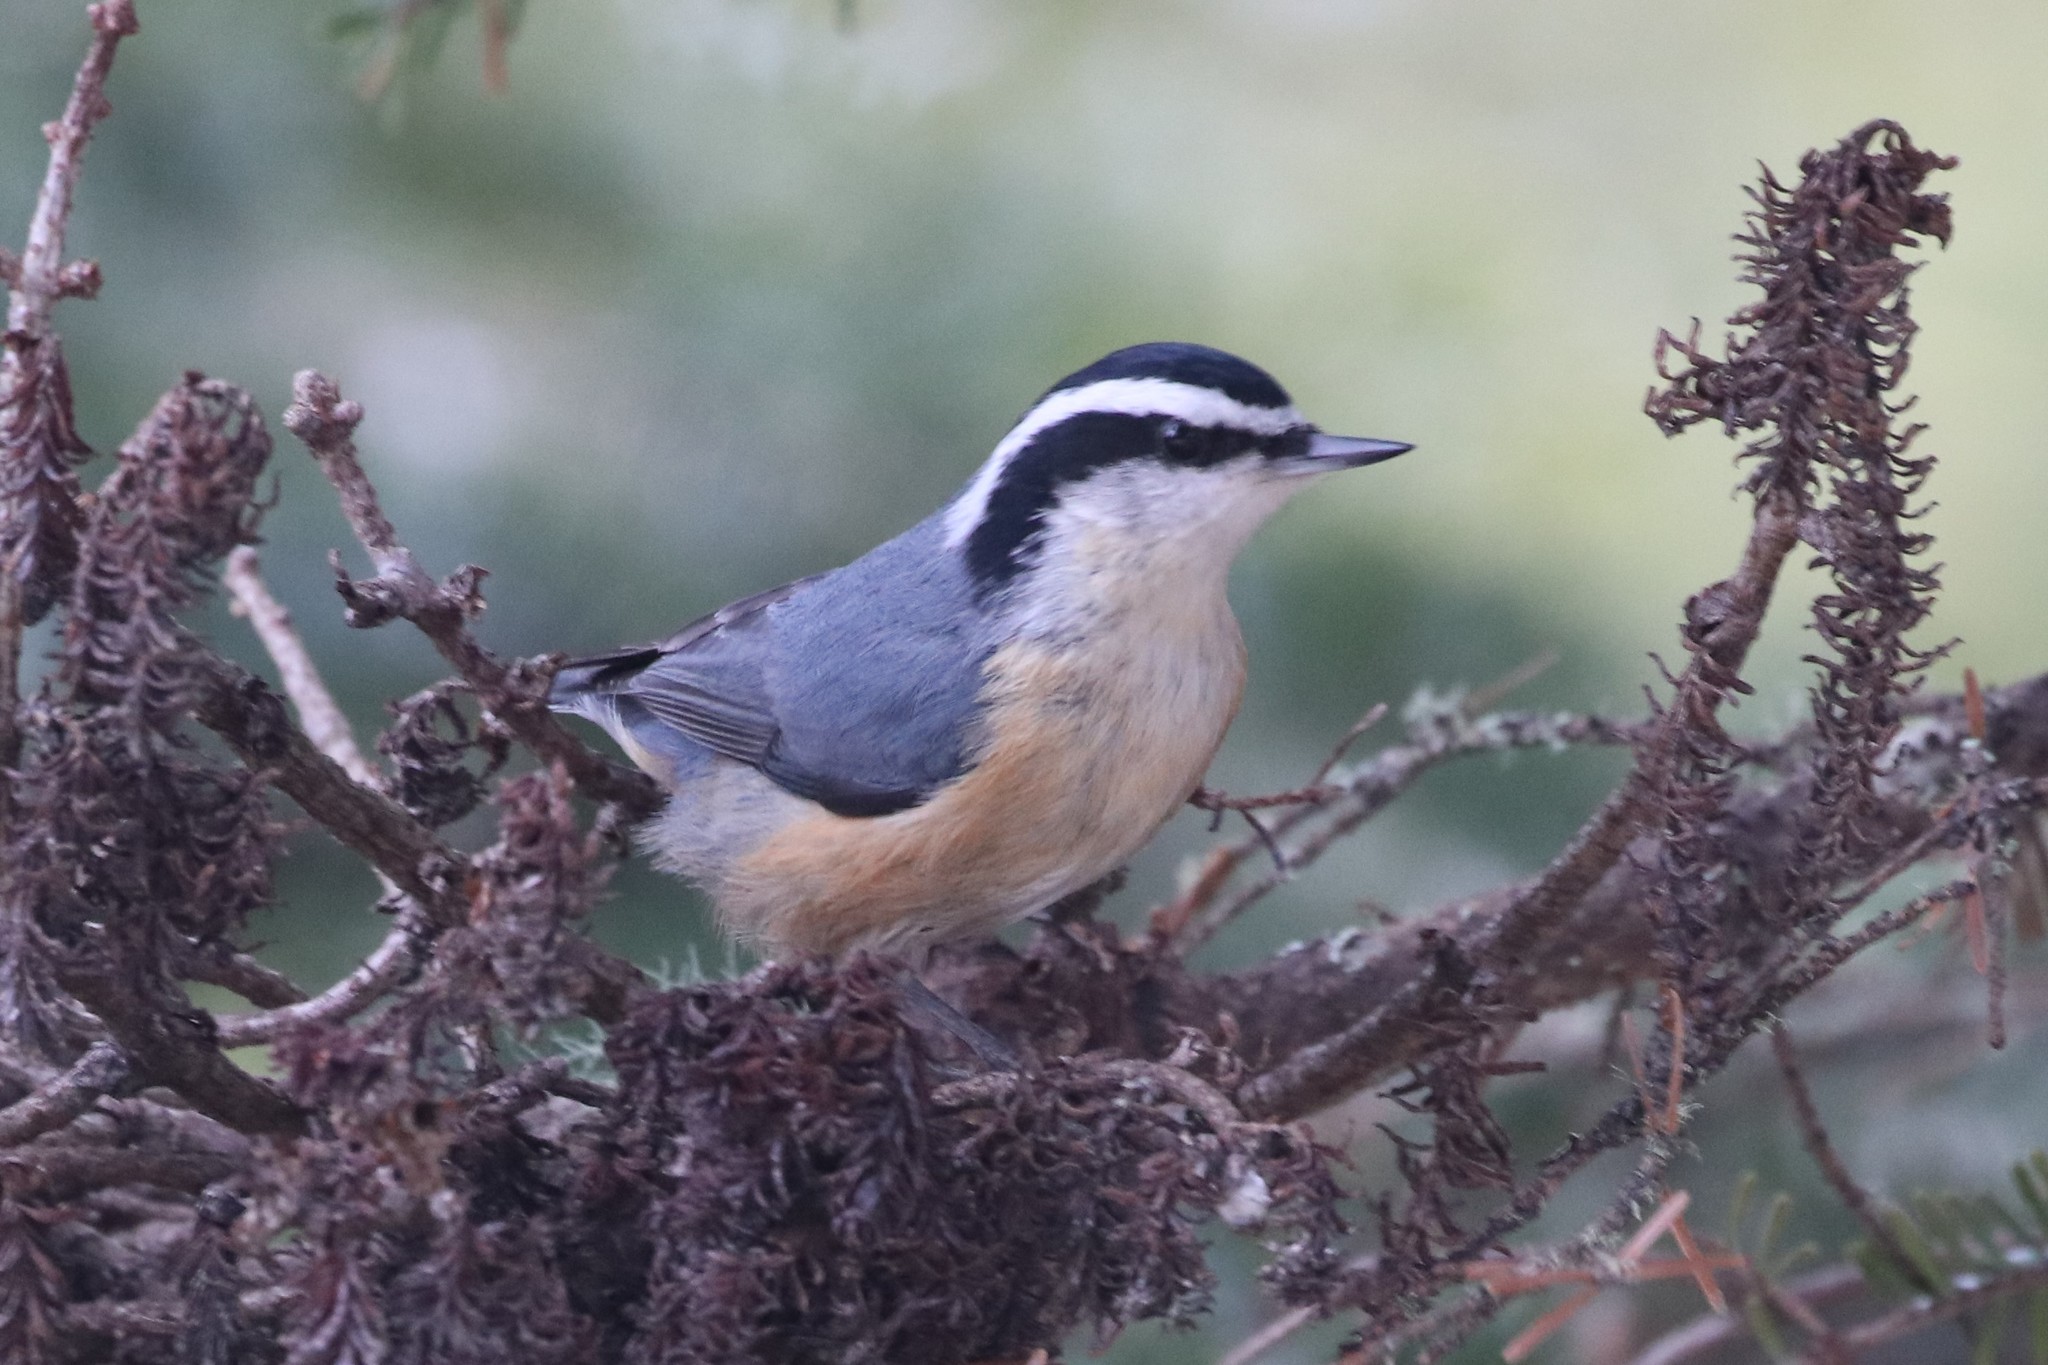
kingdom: Animalia
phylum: Chordata
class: Aves
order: Passeriformes
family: Sittidae
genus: Sitta
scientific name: Sitta canadensis
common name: Red-breasted nuthatch
